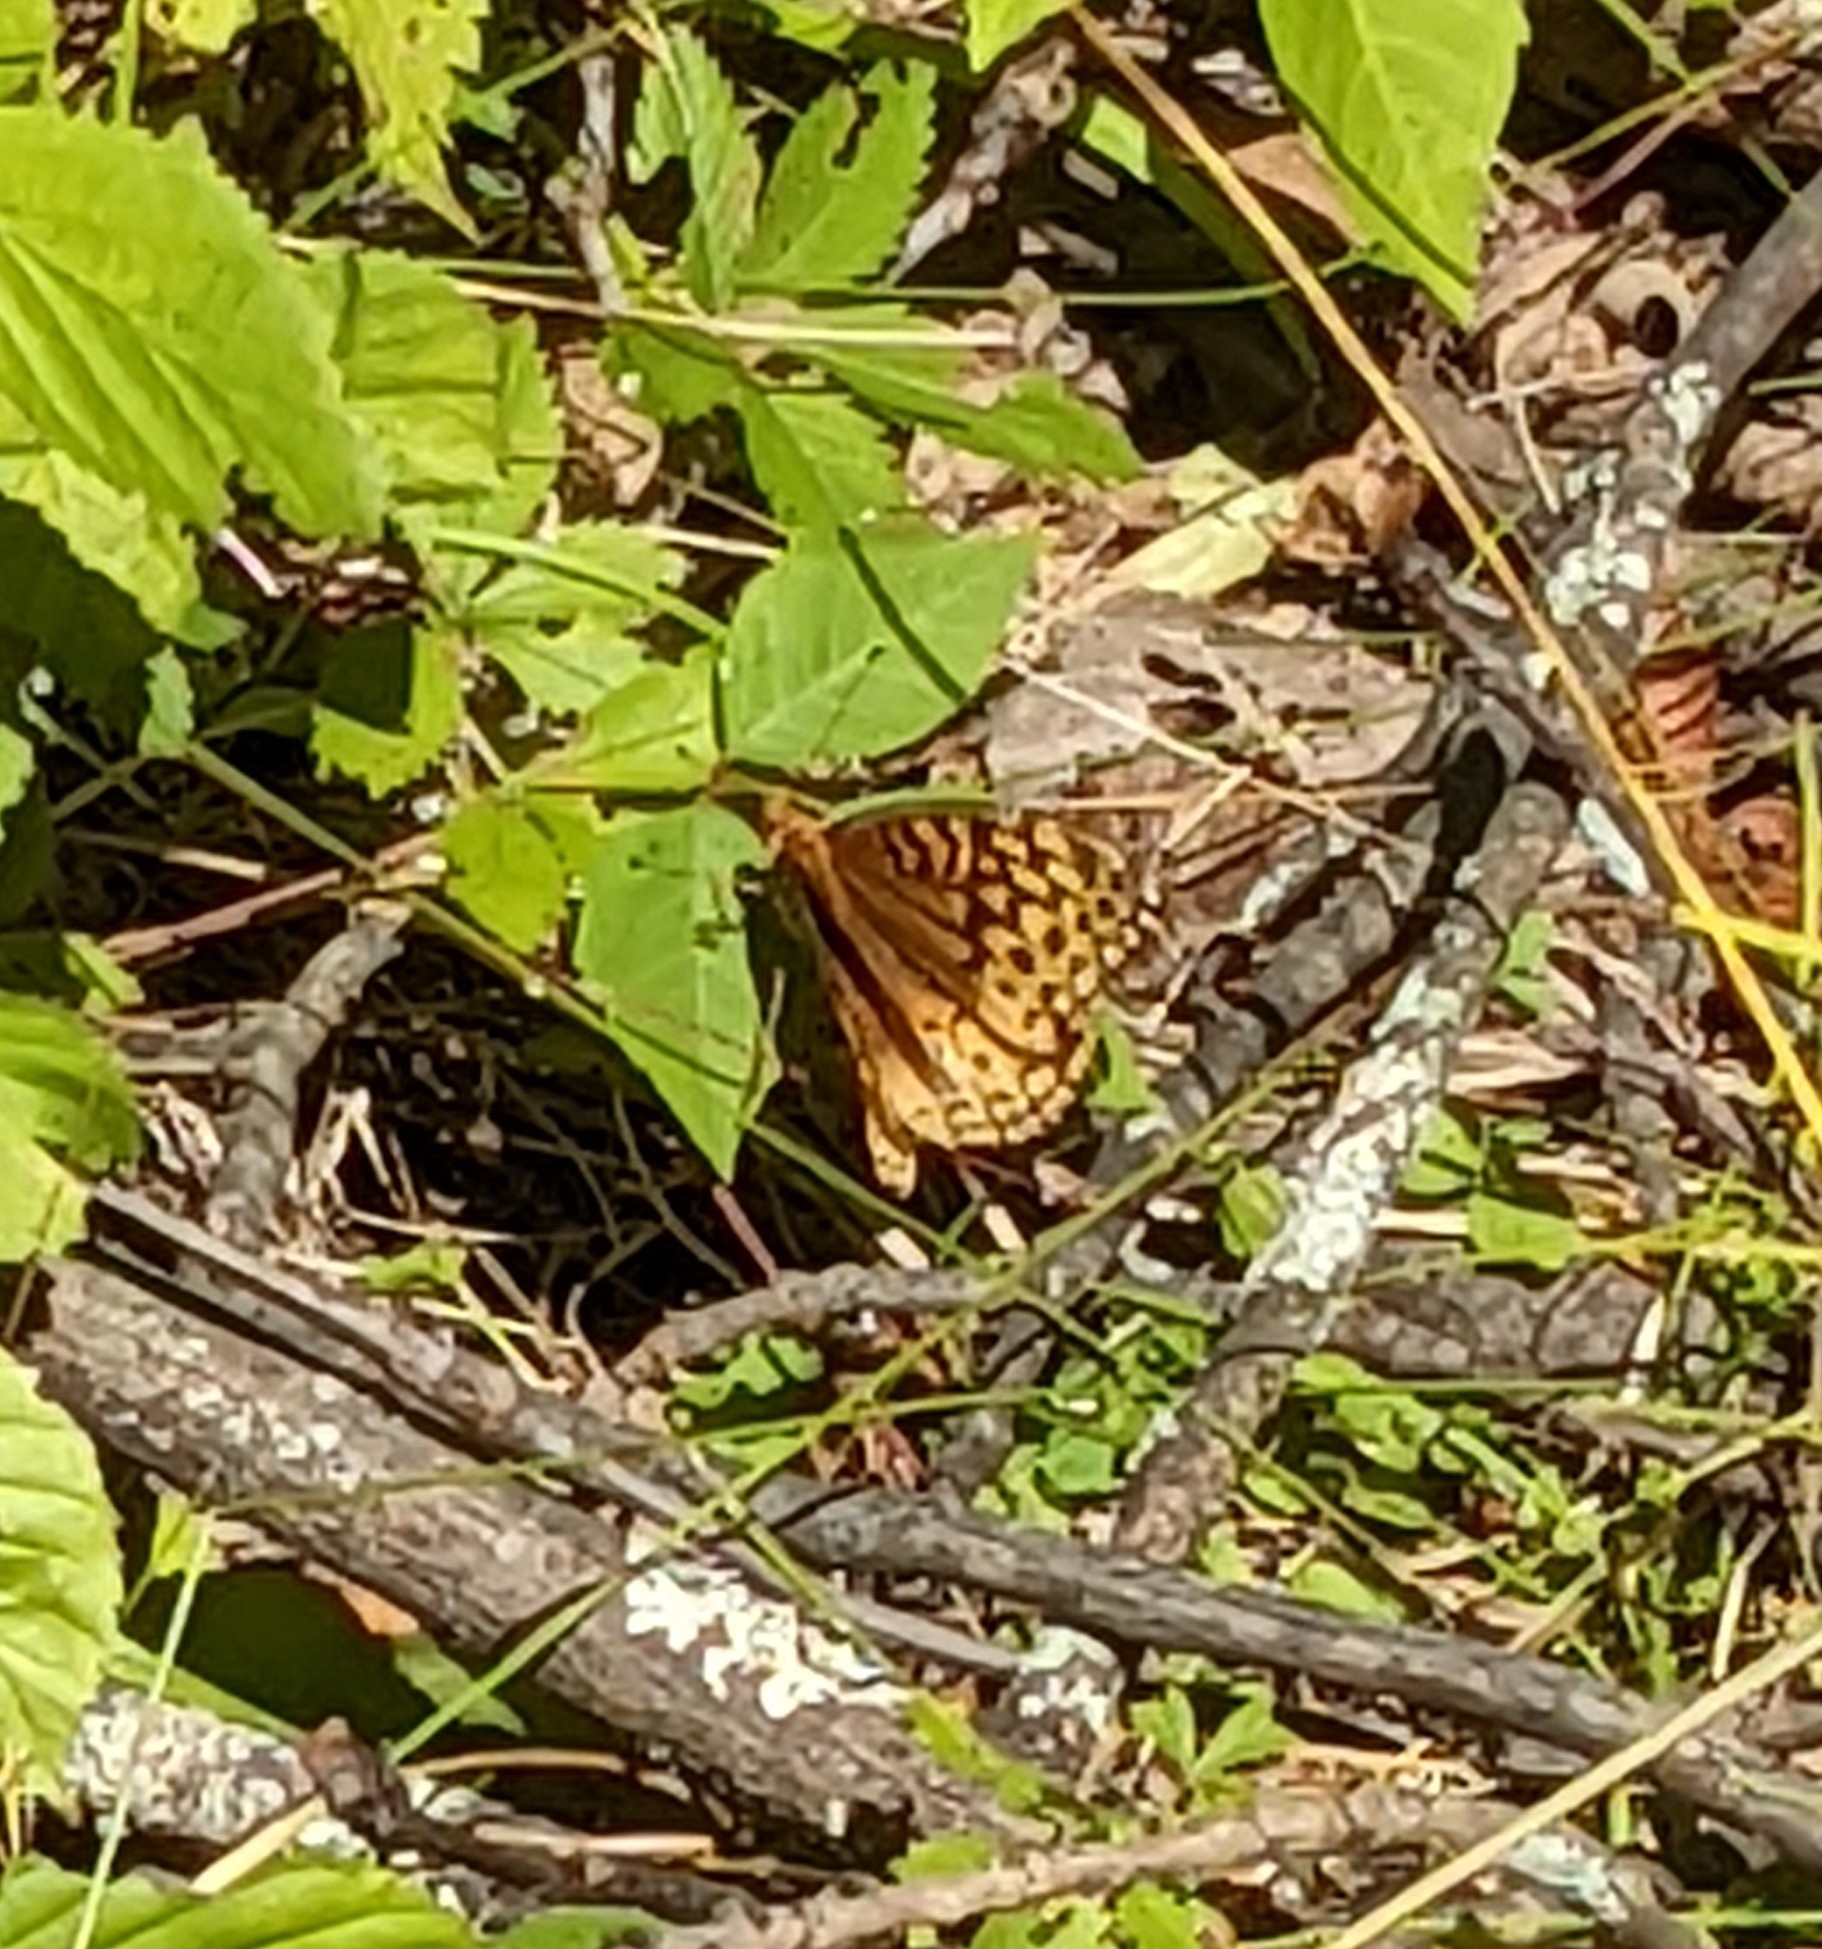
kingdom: Animalia
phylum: Arthropoda
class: Insecta
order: Lepidoptera
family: Nymphalidae
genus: Speyeria
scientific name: Speyeria cybele
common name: Great spangled fritillary
